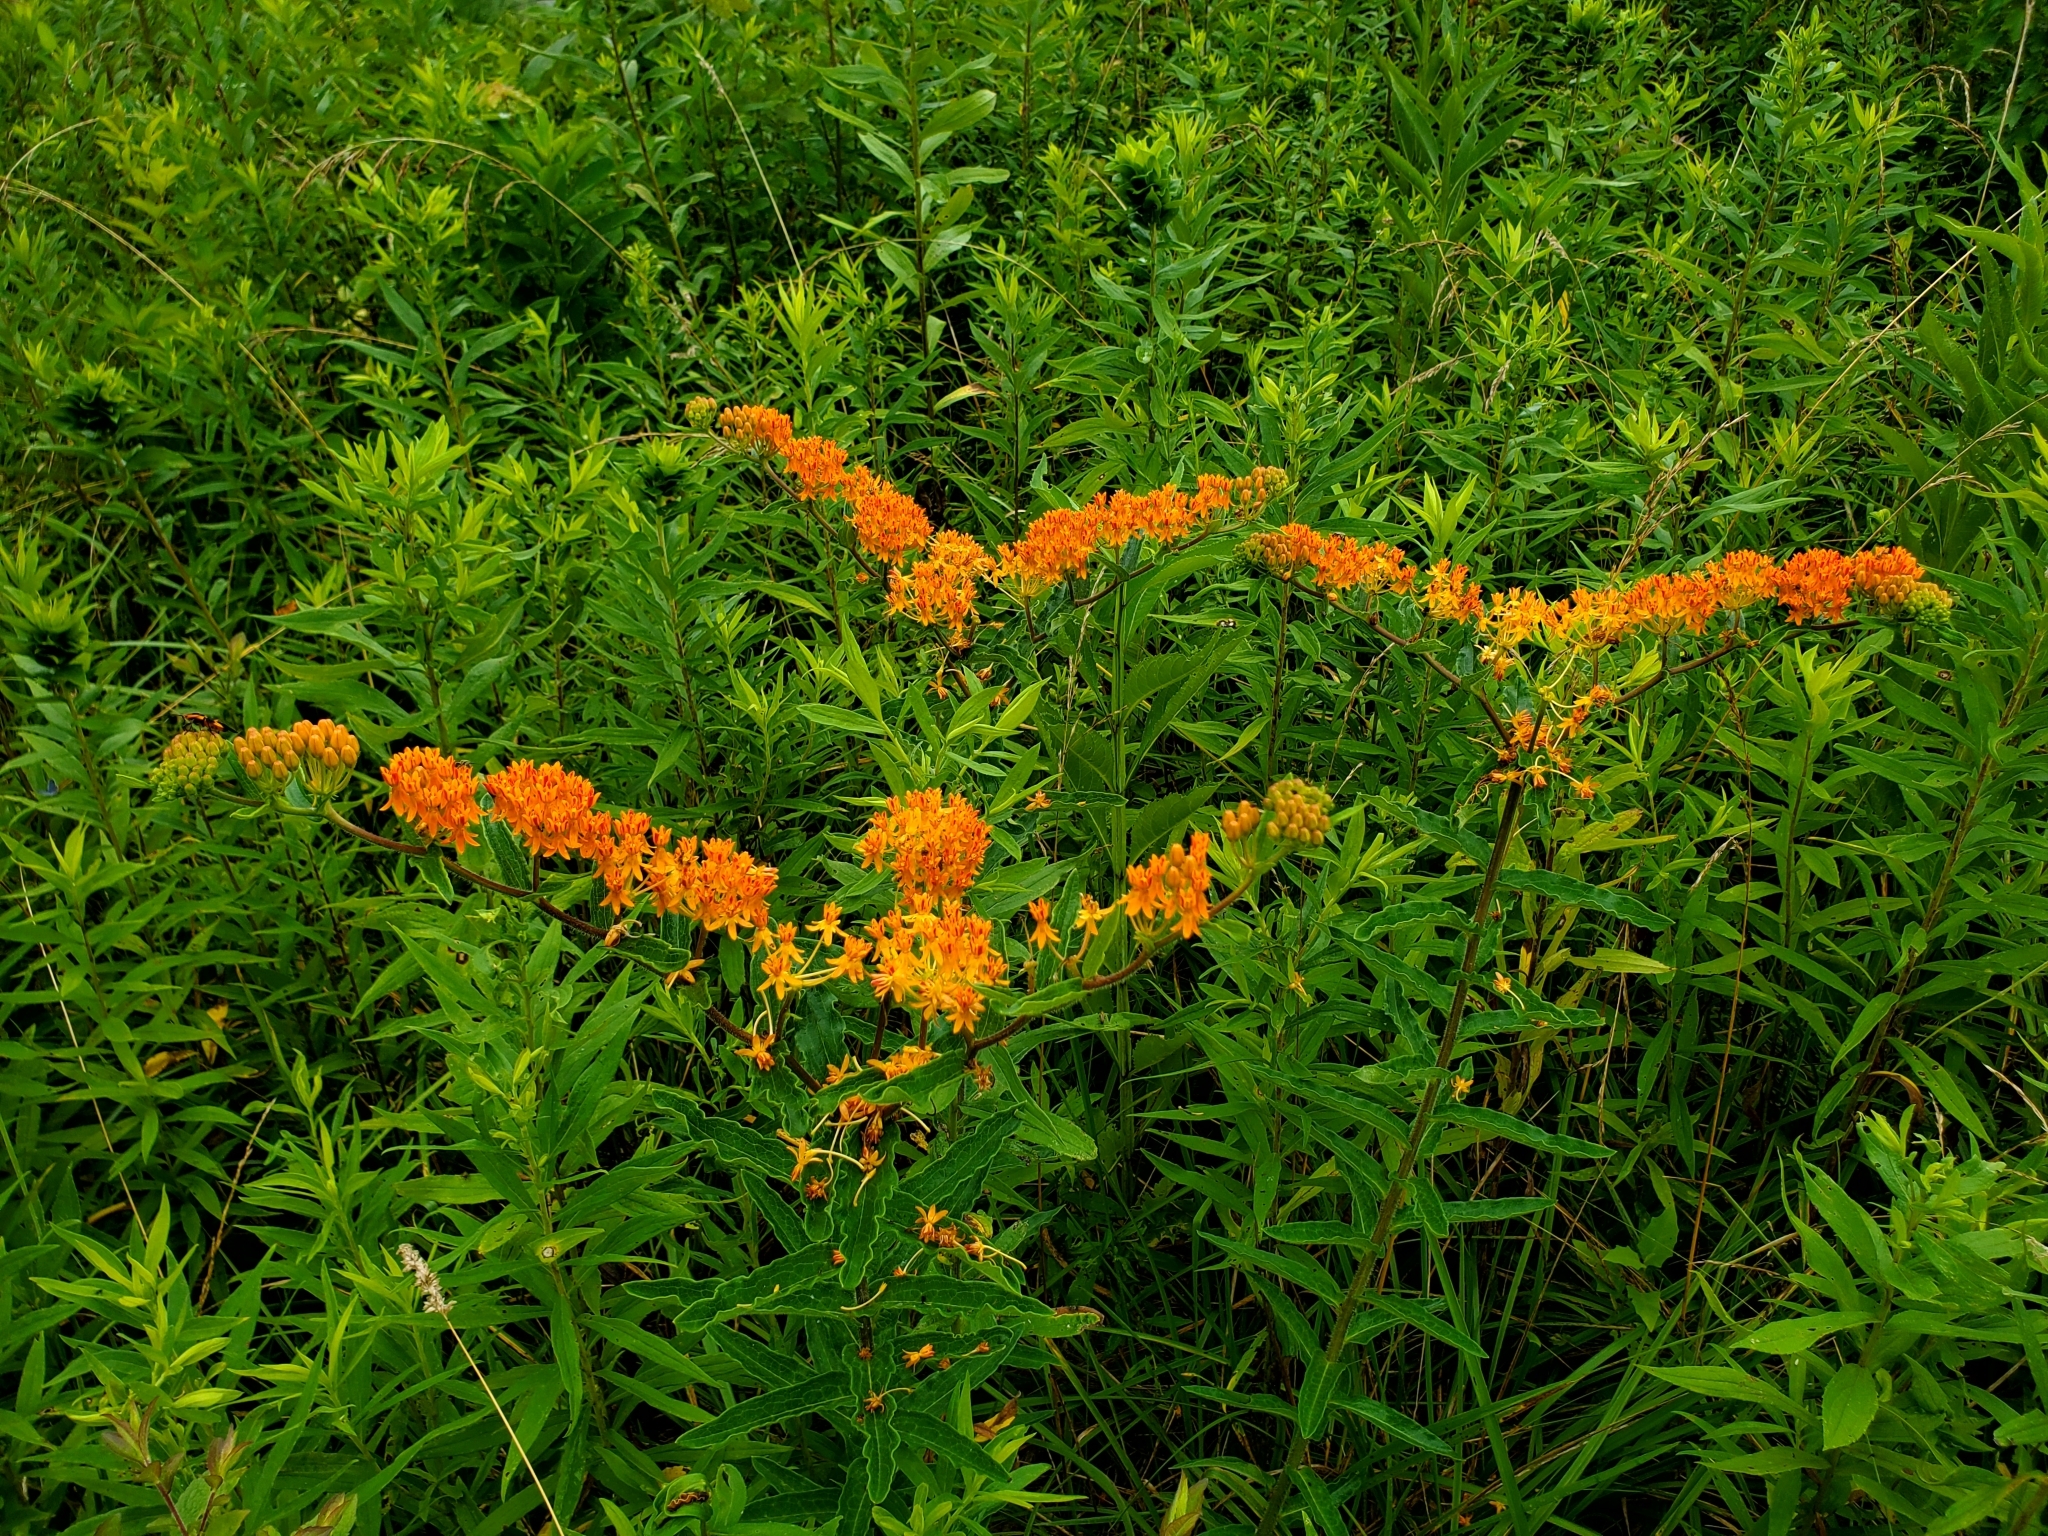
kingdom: Plantae
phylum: Tracheophyta
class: Magnoliopsida
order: Gentianales
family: Apocynaceae
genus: Asclepias
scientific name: Asclepias tuberosa
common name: Butterfly milkweed
